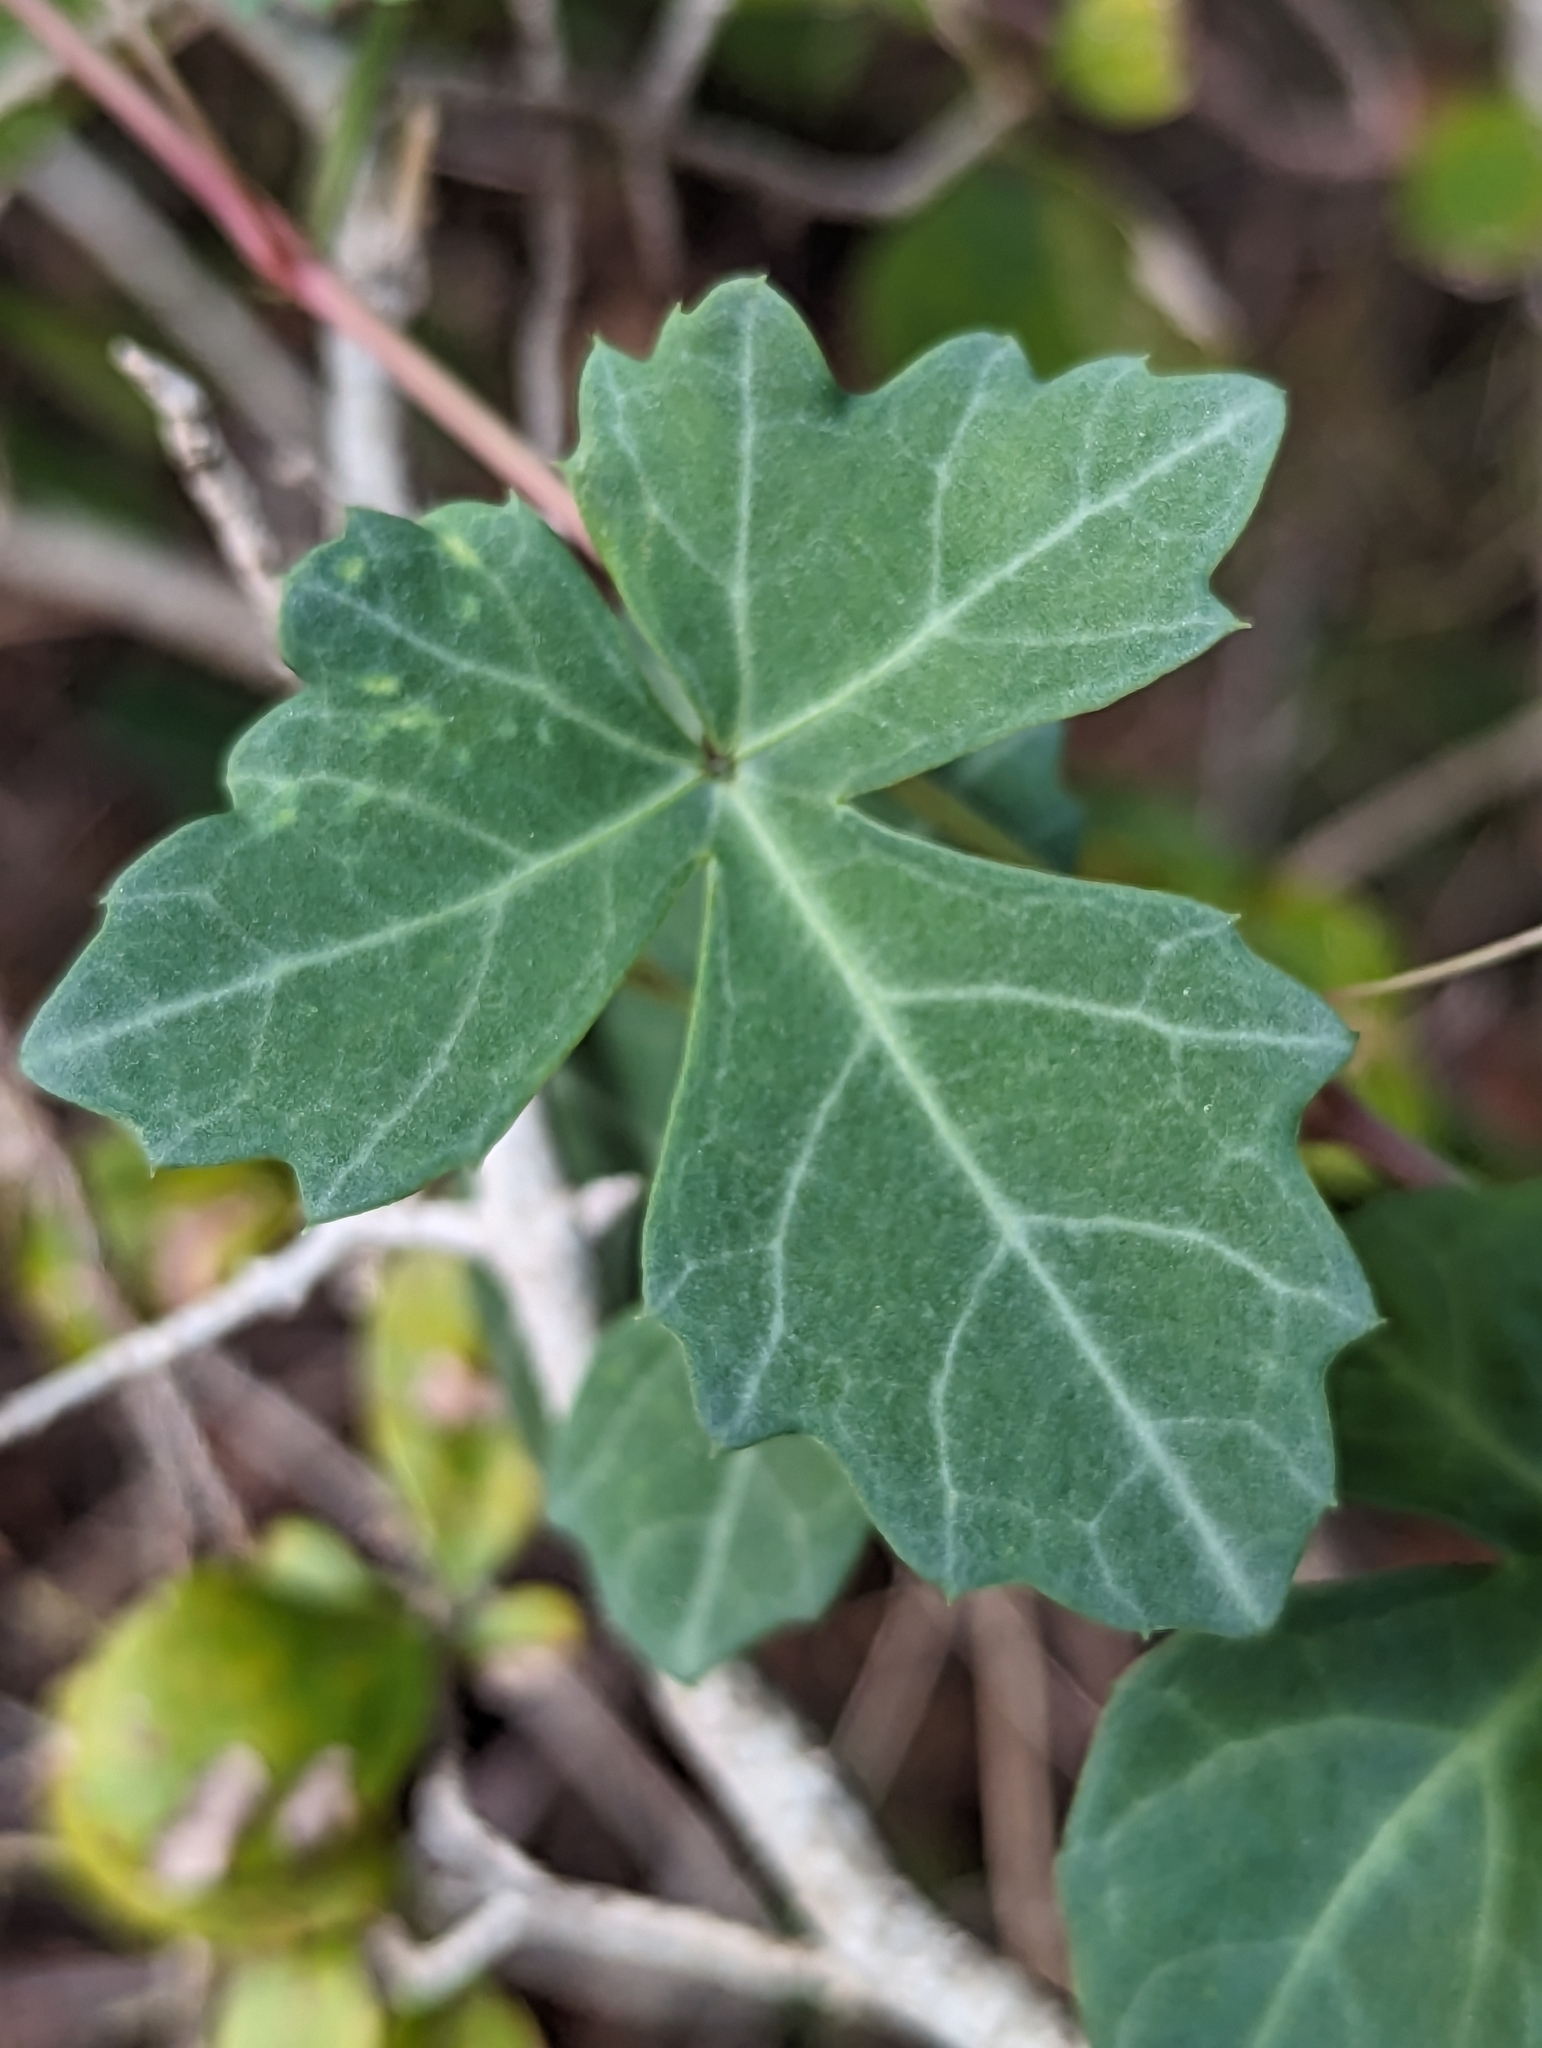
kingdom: Plantae
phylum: Tracheophyta
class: Magnoliopsida
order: Vitales
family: Vitaceae
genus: Cissus
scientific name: Cissus trifoliata
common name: Vine-sorrel
